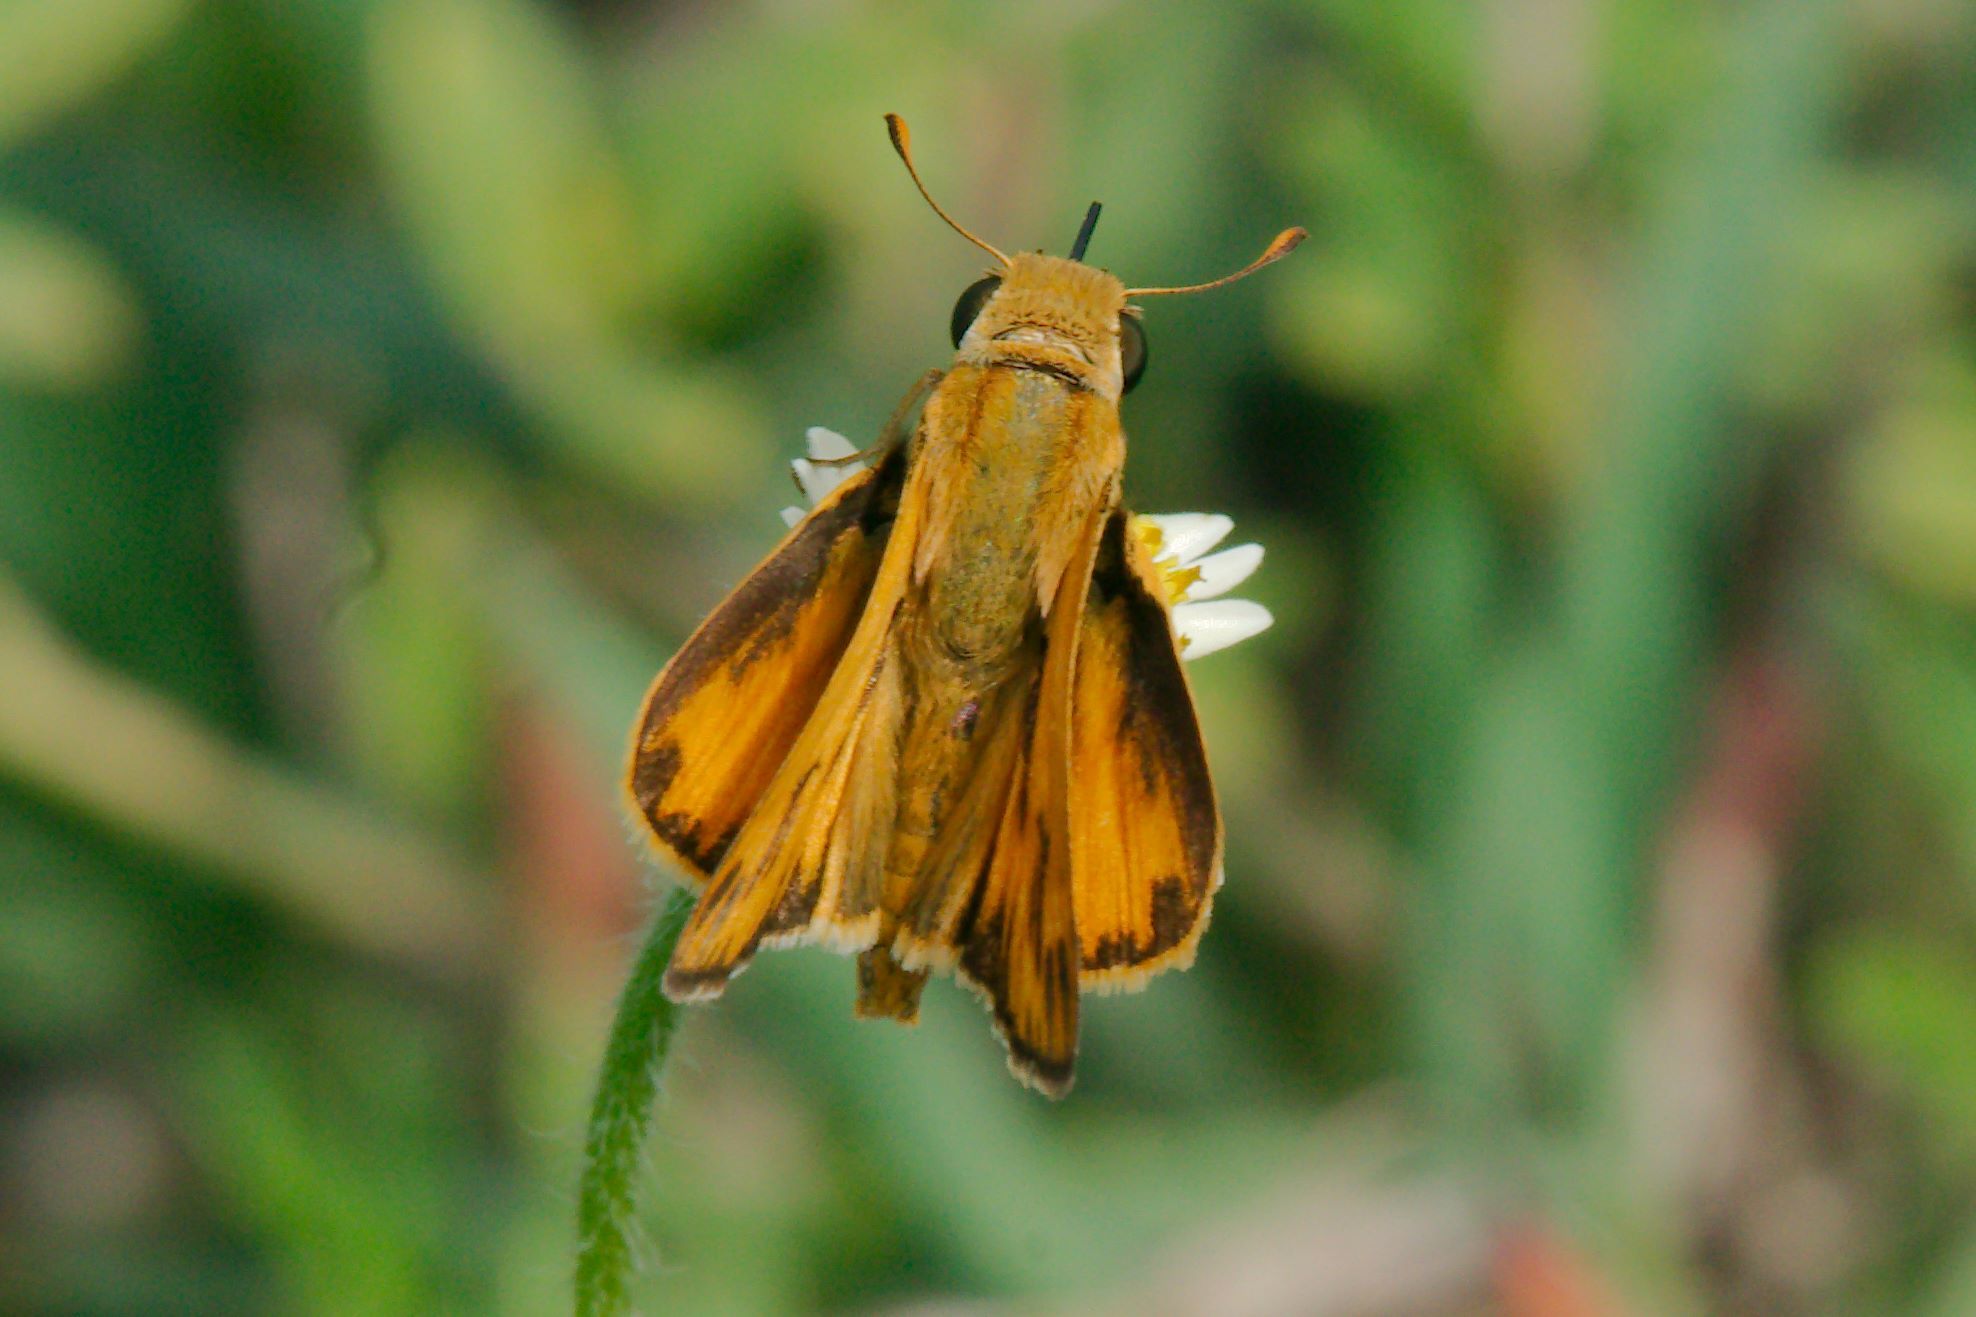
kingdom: Animalia
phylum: Arthropoda
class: Insecta
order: Lepidoptera
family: Hesperiidae
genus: Hylephila
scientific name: Hylephila phyleus
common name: Fiery skipper
